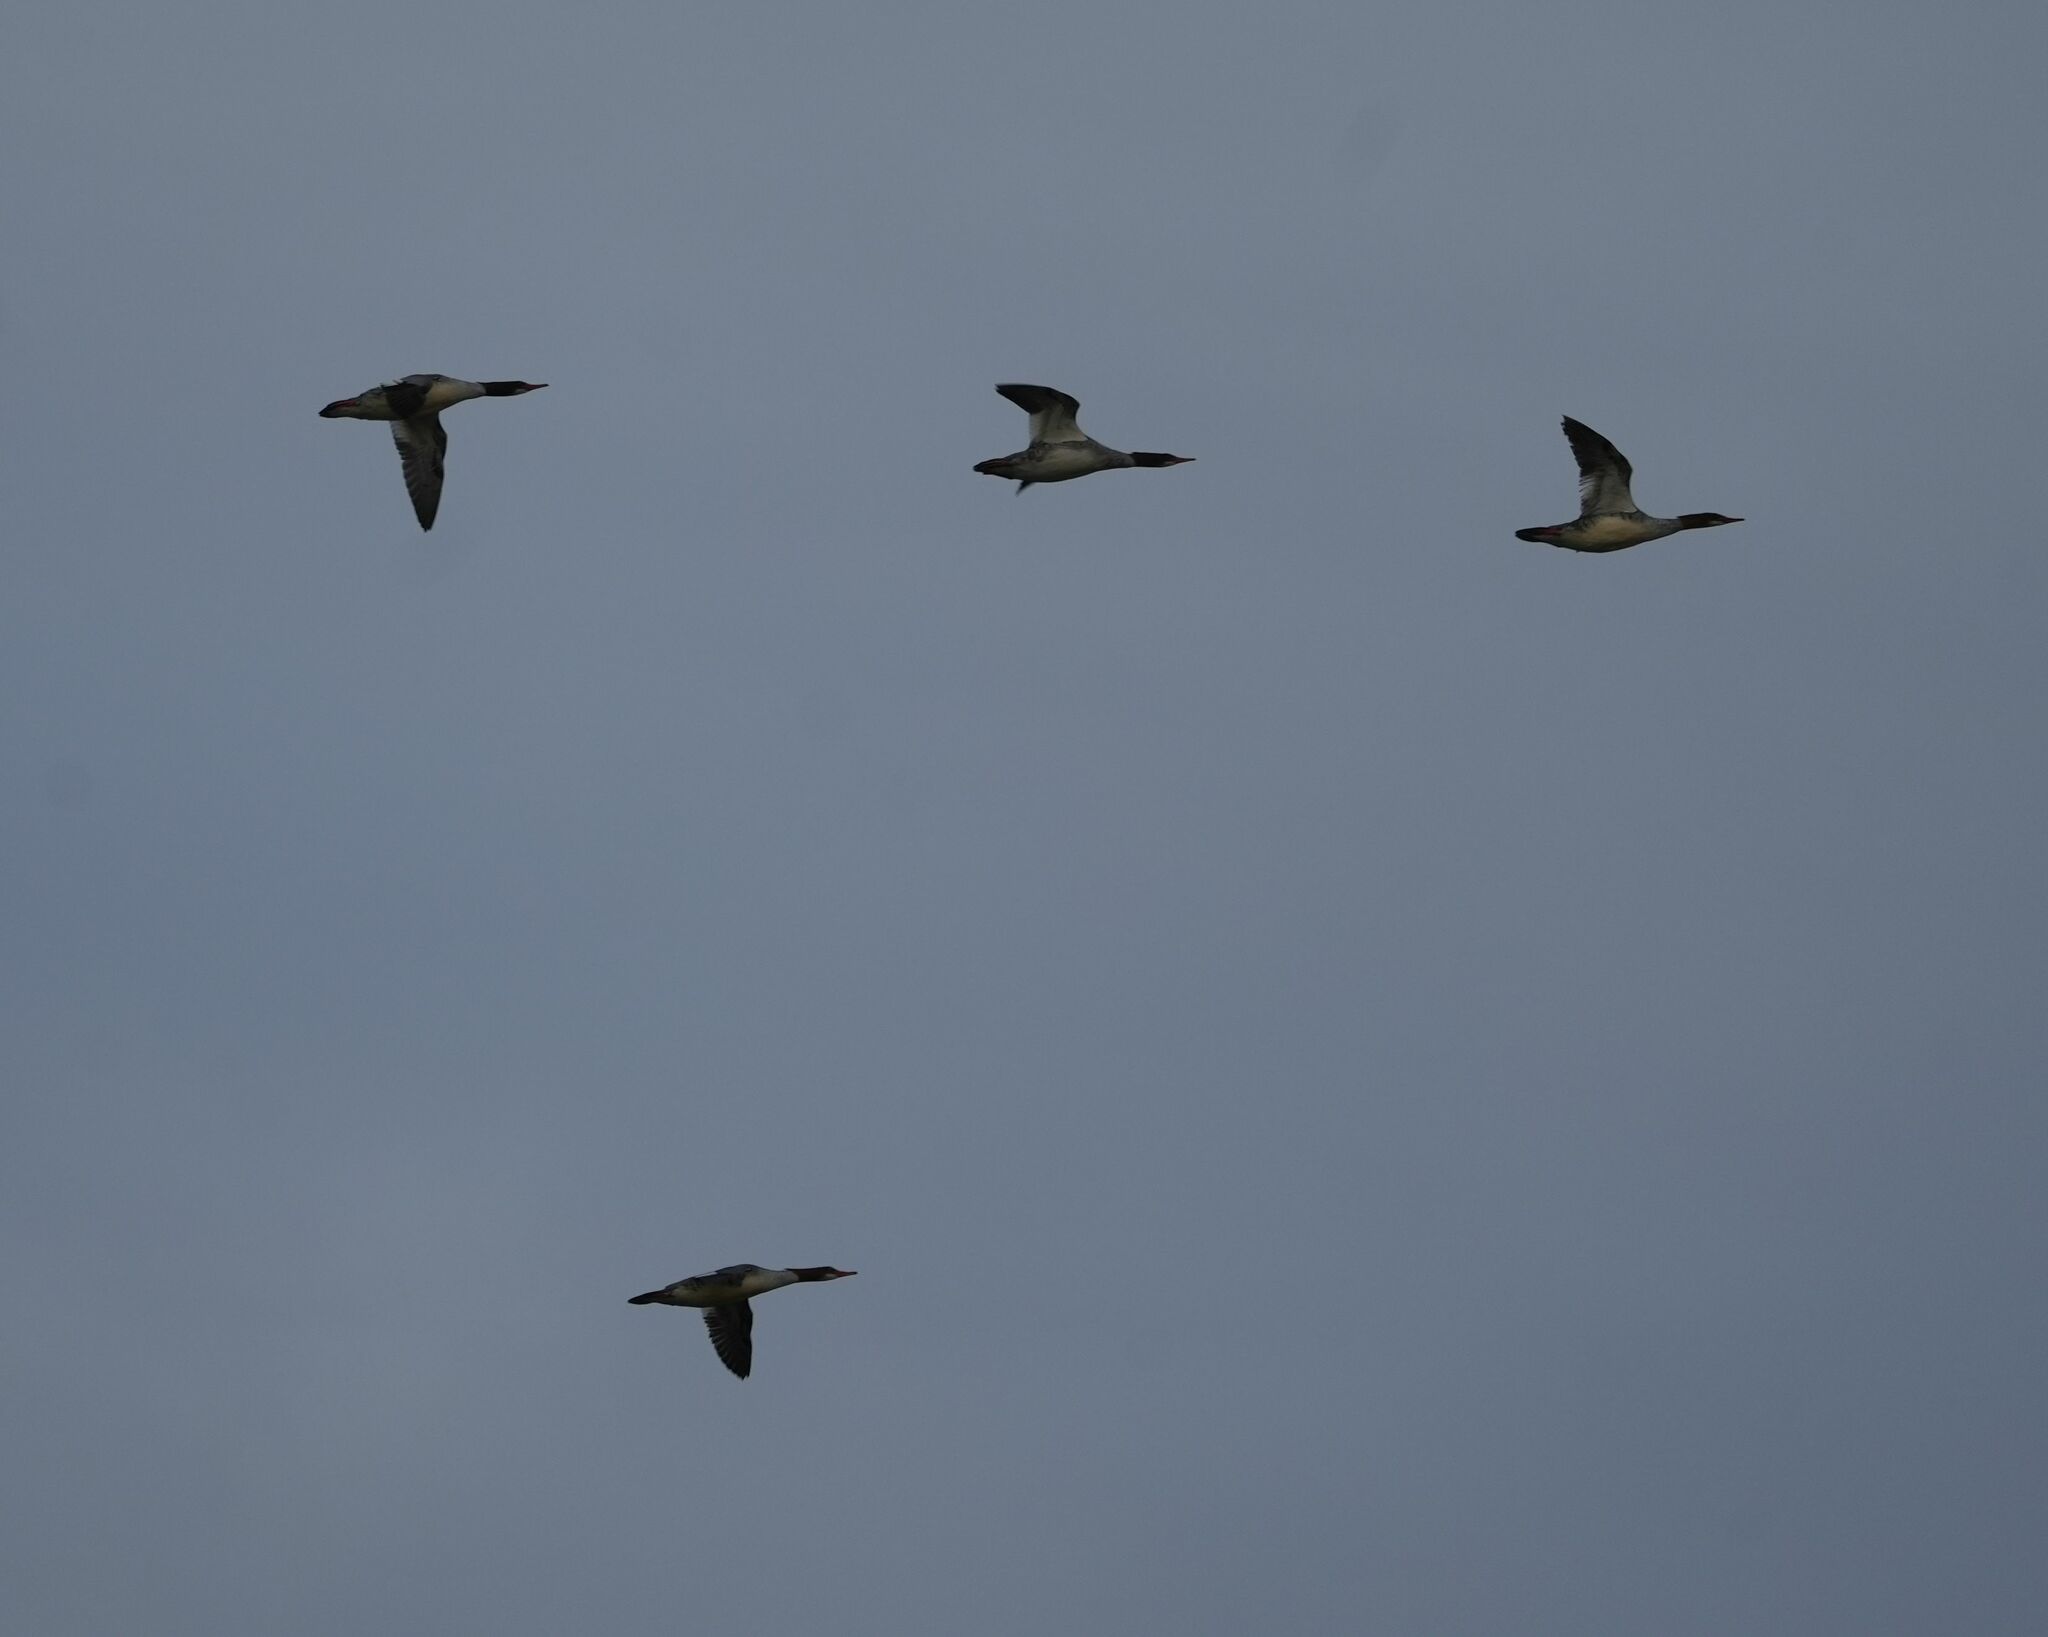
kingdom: Animalia
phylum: Chordata
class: Aves
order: Anseriformes
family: Anatidae
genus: Mergus
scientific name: Mergus merganser
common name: Common merganser
